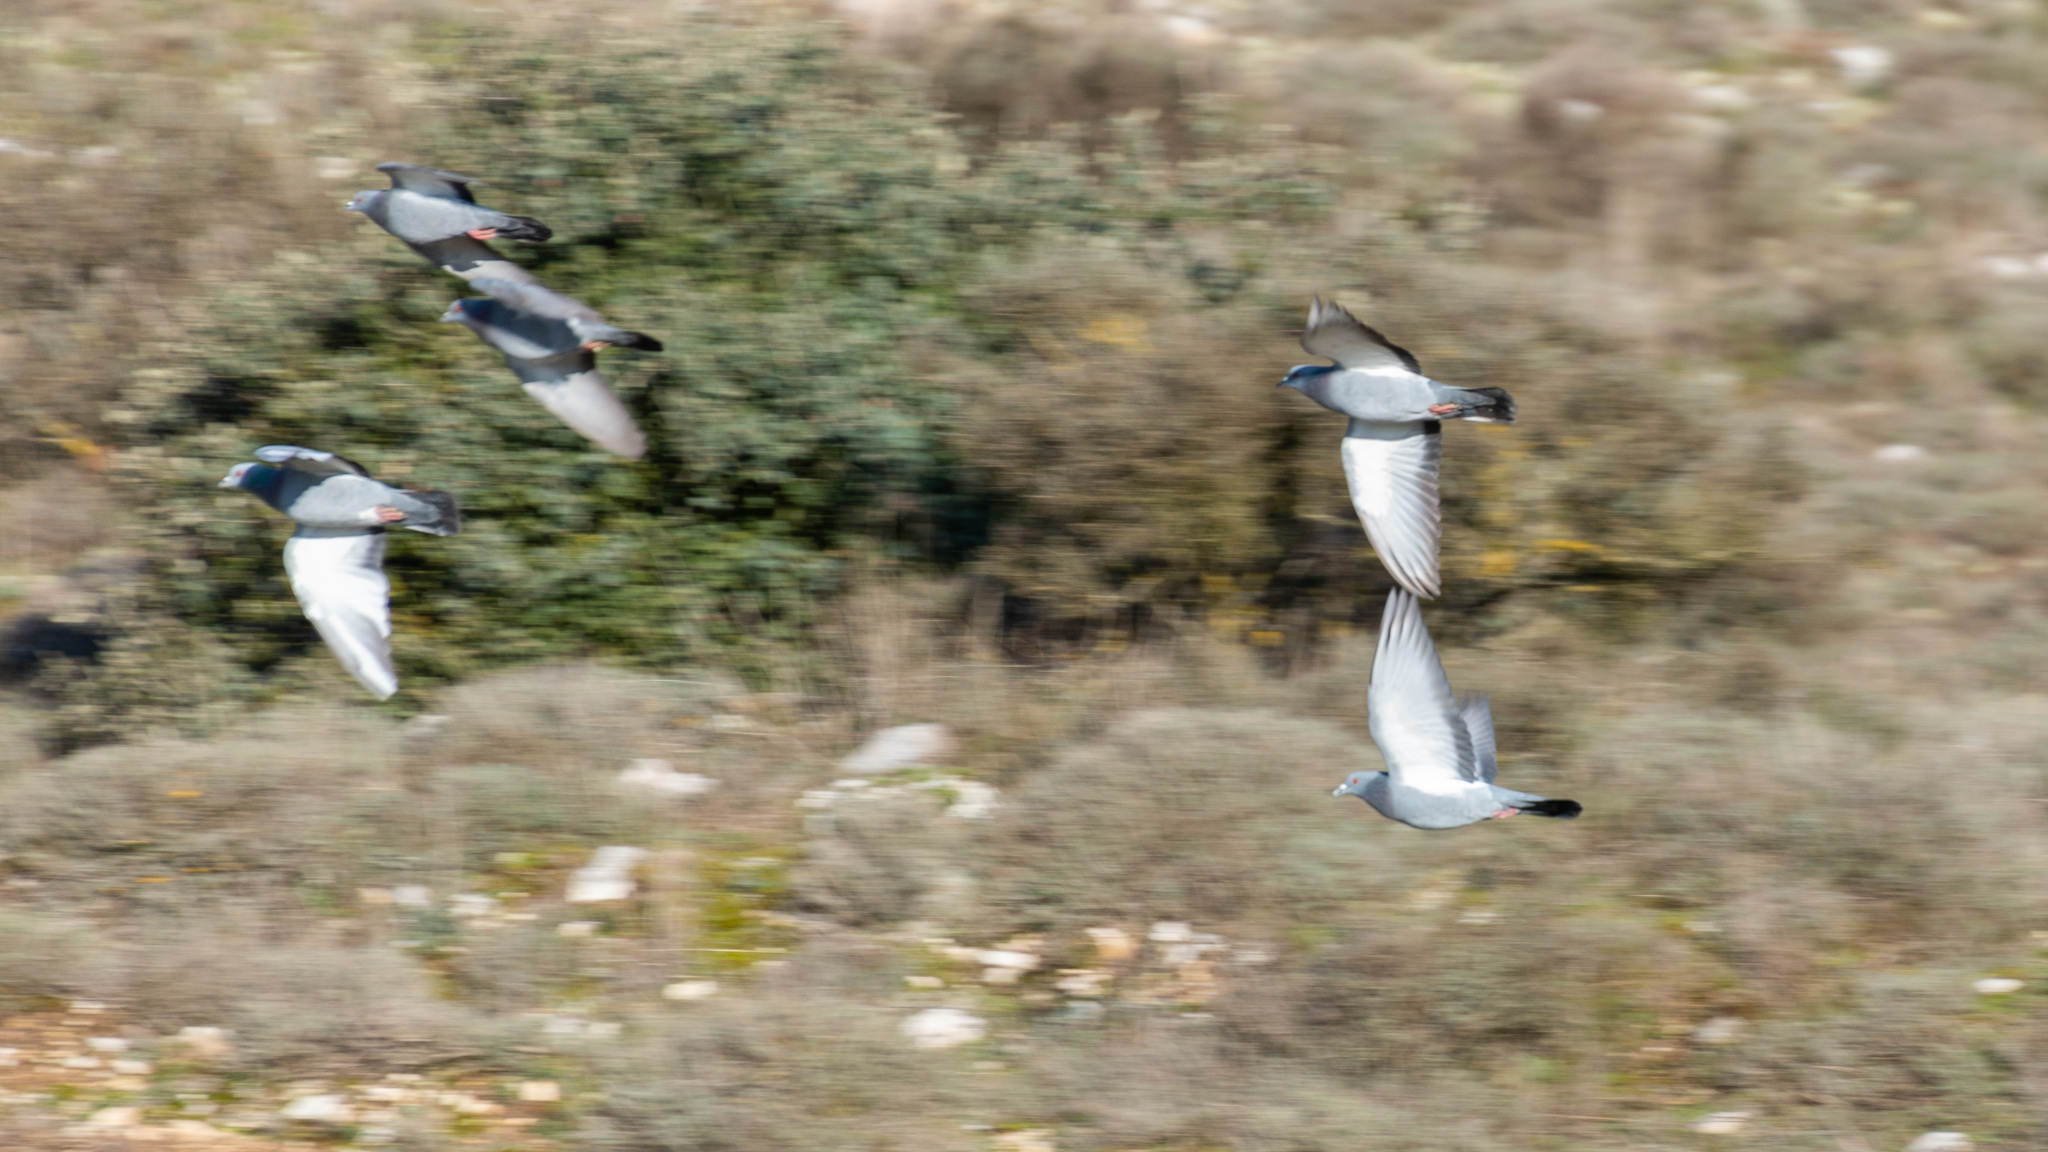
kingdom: Animalia
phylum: Chordata
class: Aves
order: Columbiformes
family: Columbidae
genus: Columba
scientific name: Columba livia
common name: Rock pigeon
